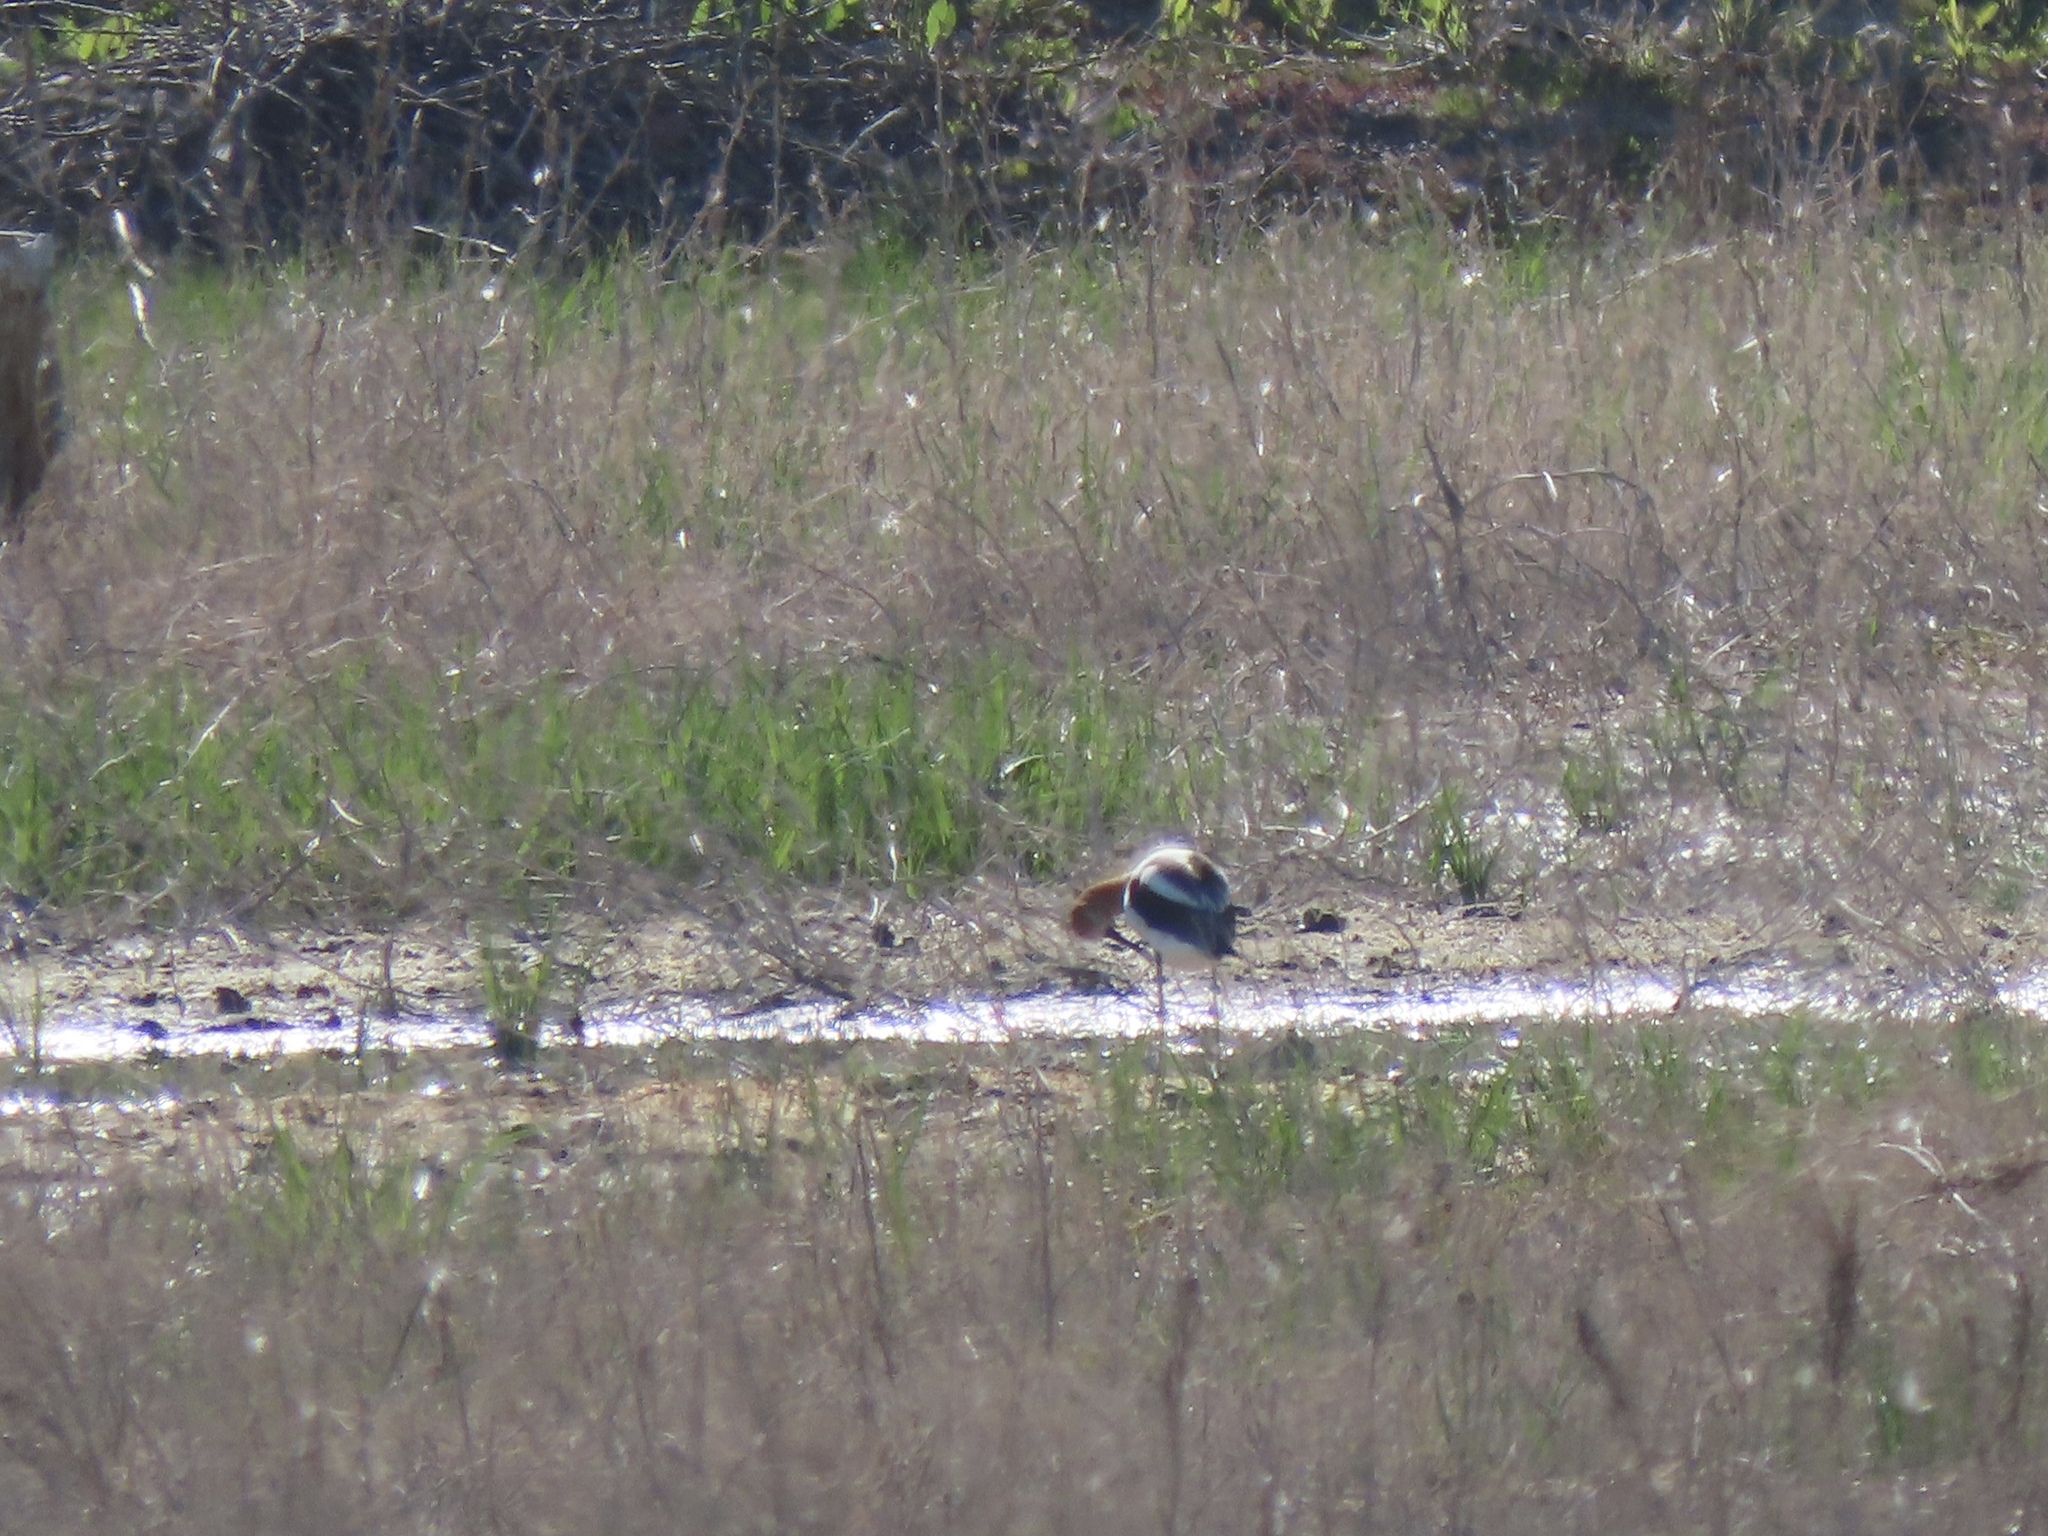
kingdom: Animalia
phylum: Chordata
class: Aves
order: Charadriiformes
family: Recurvirostridae
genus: Recurvirostra
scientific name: Recurvirostra americana
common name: American avocet
